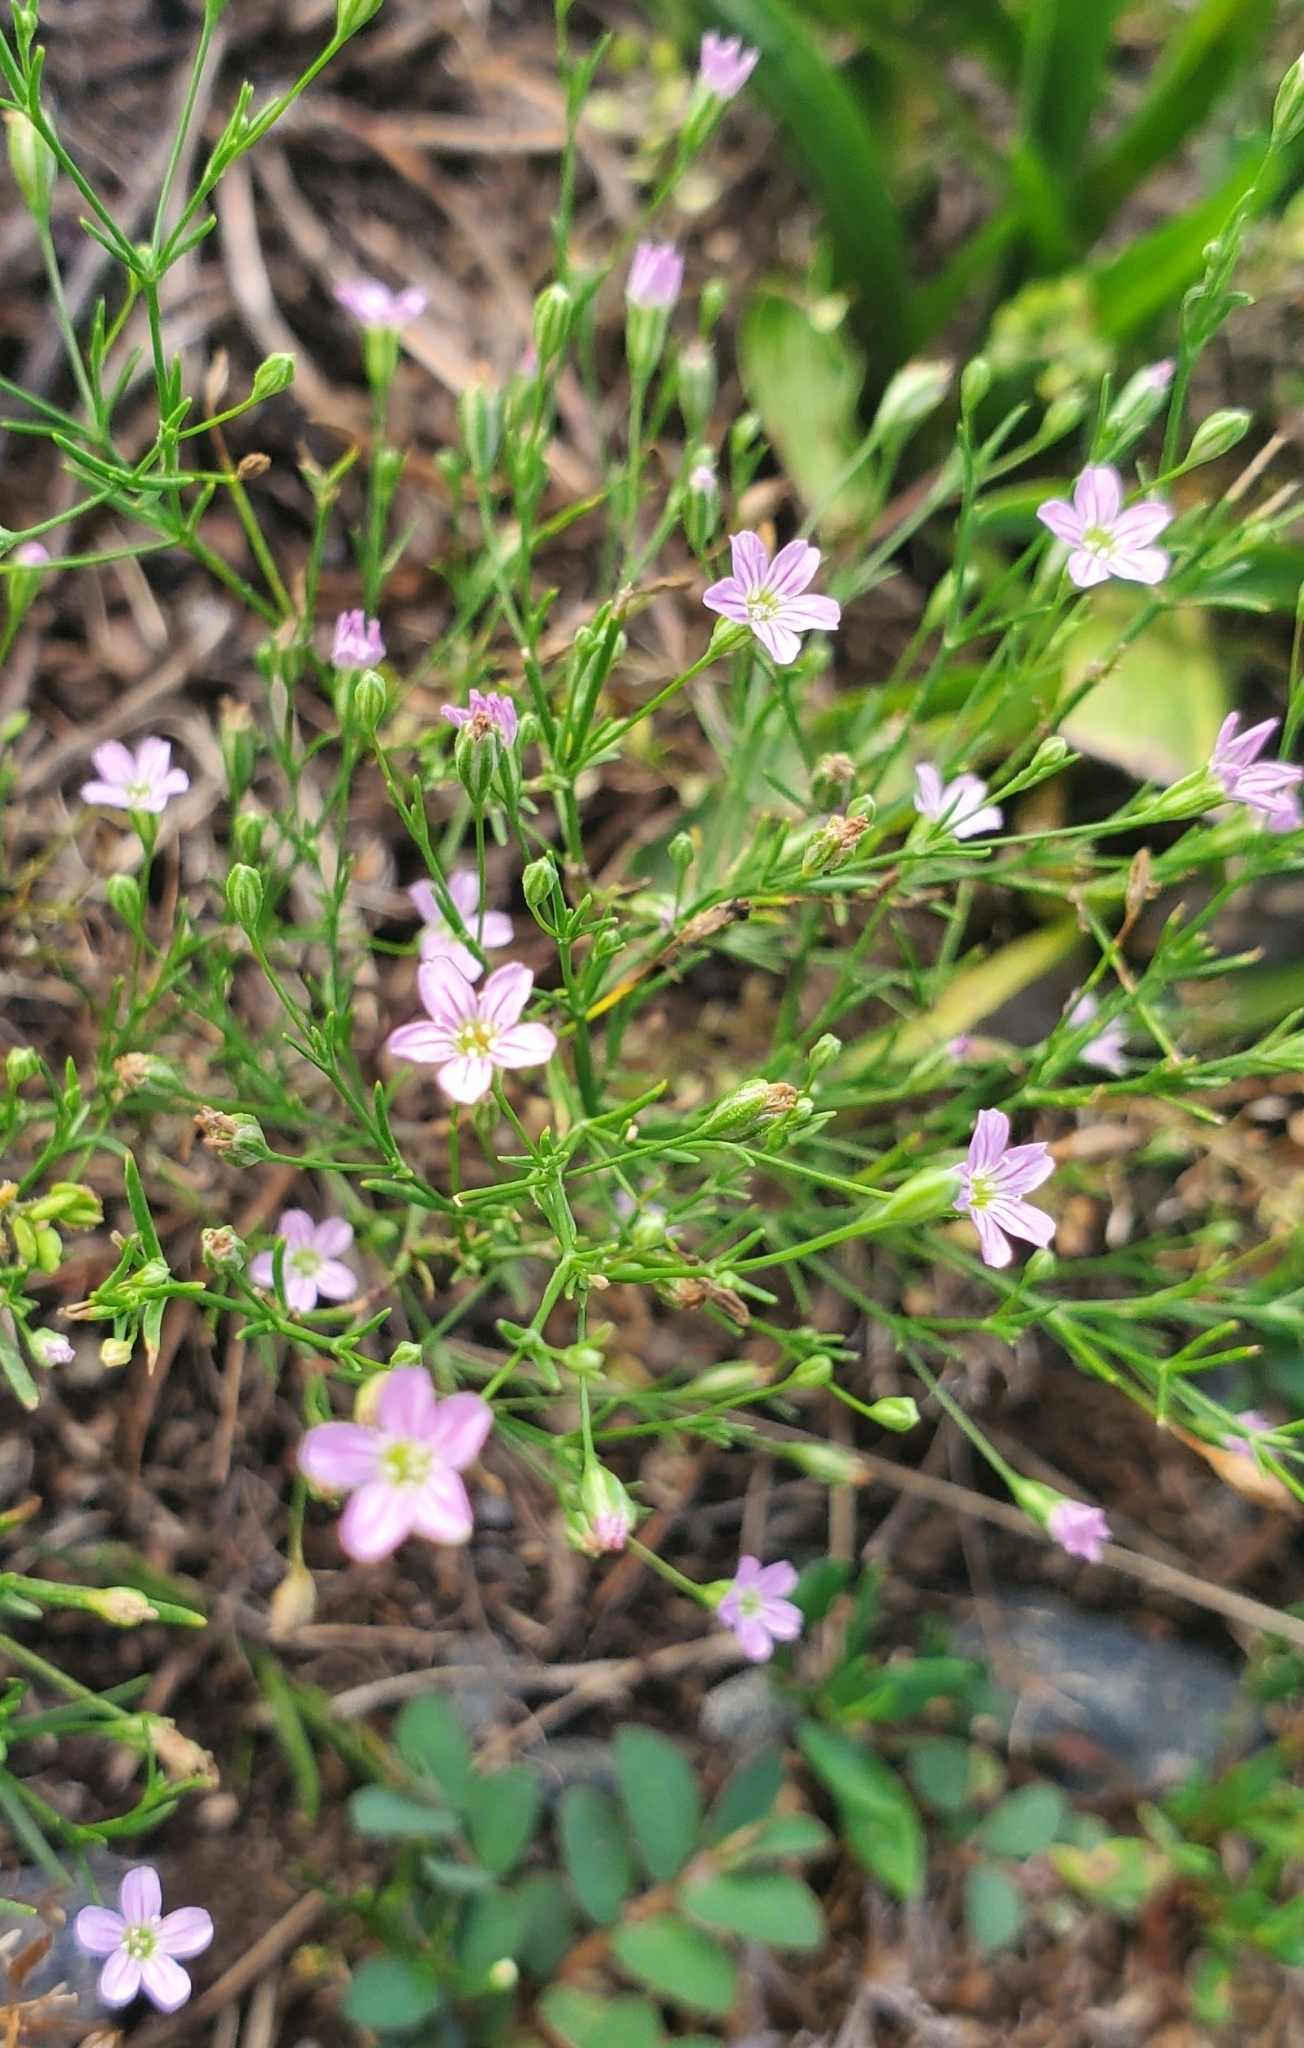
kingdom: Plantae
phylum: Tracheophyta
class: Magnoliopsida
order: Caryophyllales
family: Caryophyllaceae
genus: Psammophiliella
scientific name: Psammophiliella muralis
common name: Cushion baby's-breath
